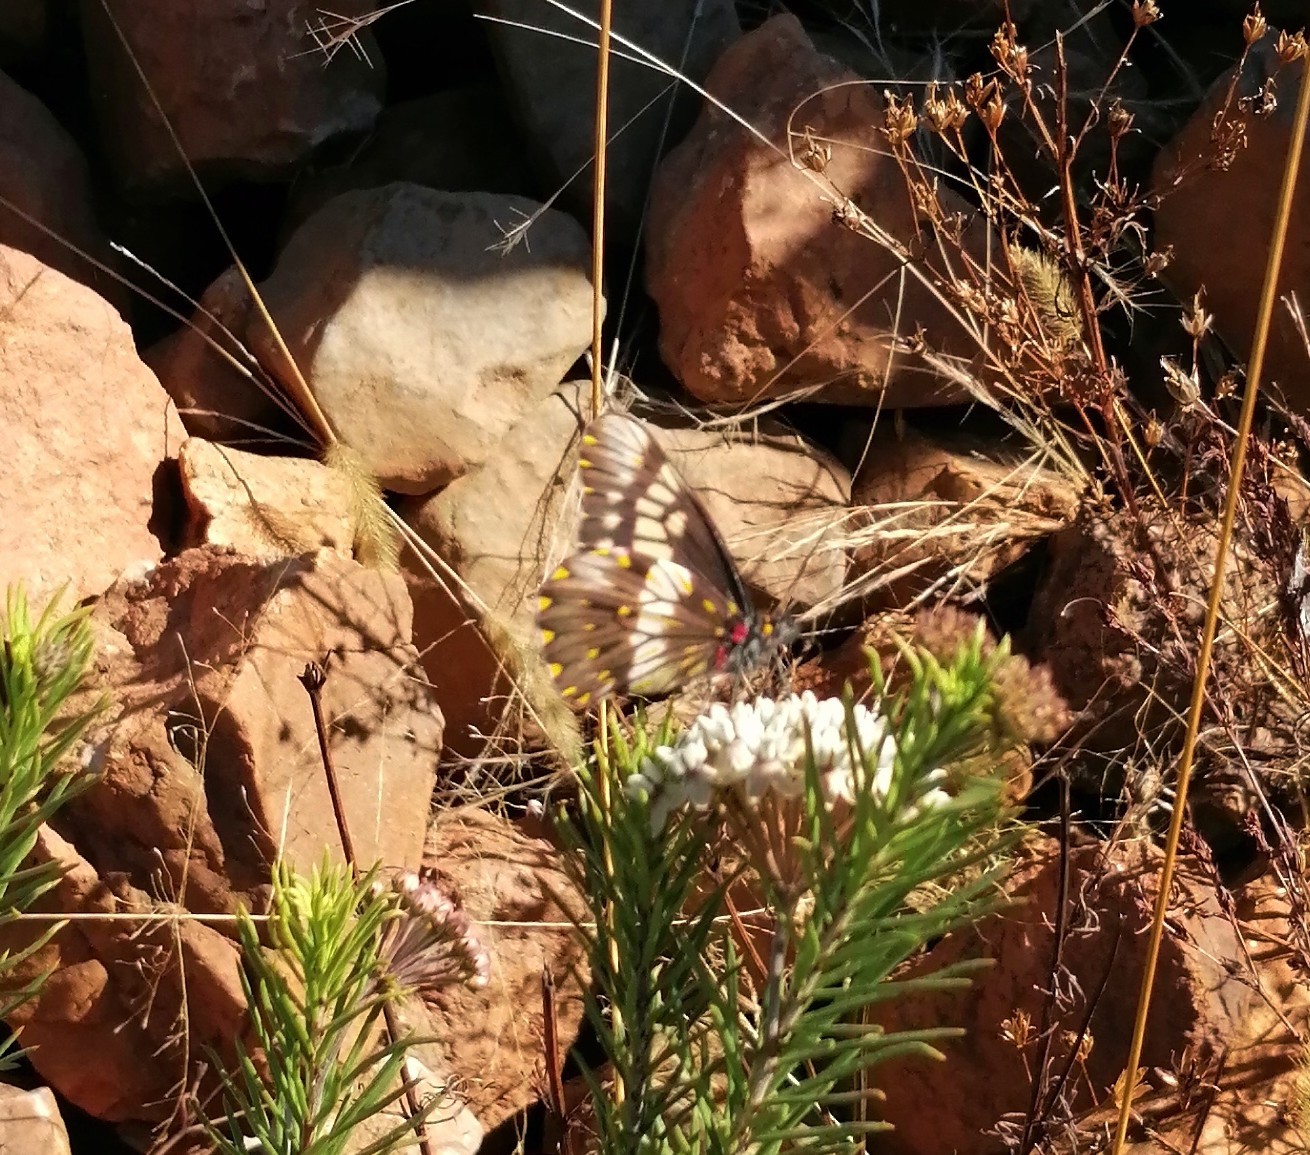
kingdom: Animalia
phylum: Arthropoda
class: Insecta
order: Lepidoptera
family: Pieridae
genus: Archonias
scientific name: Archonias nimbice
